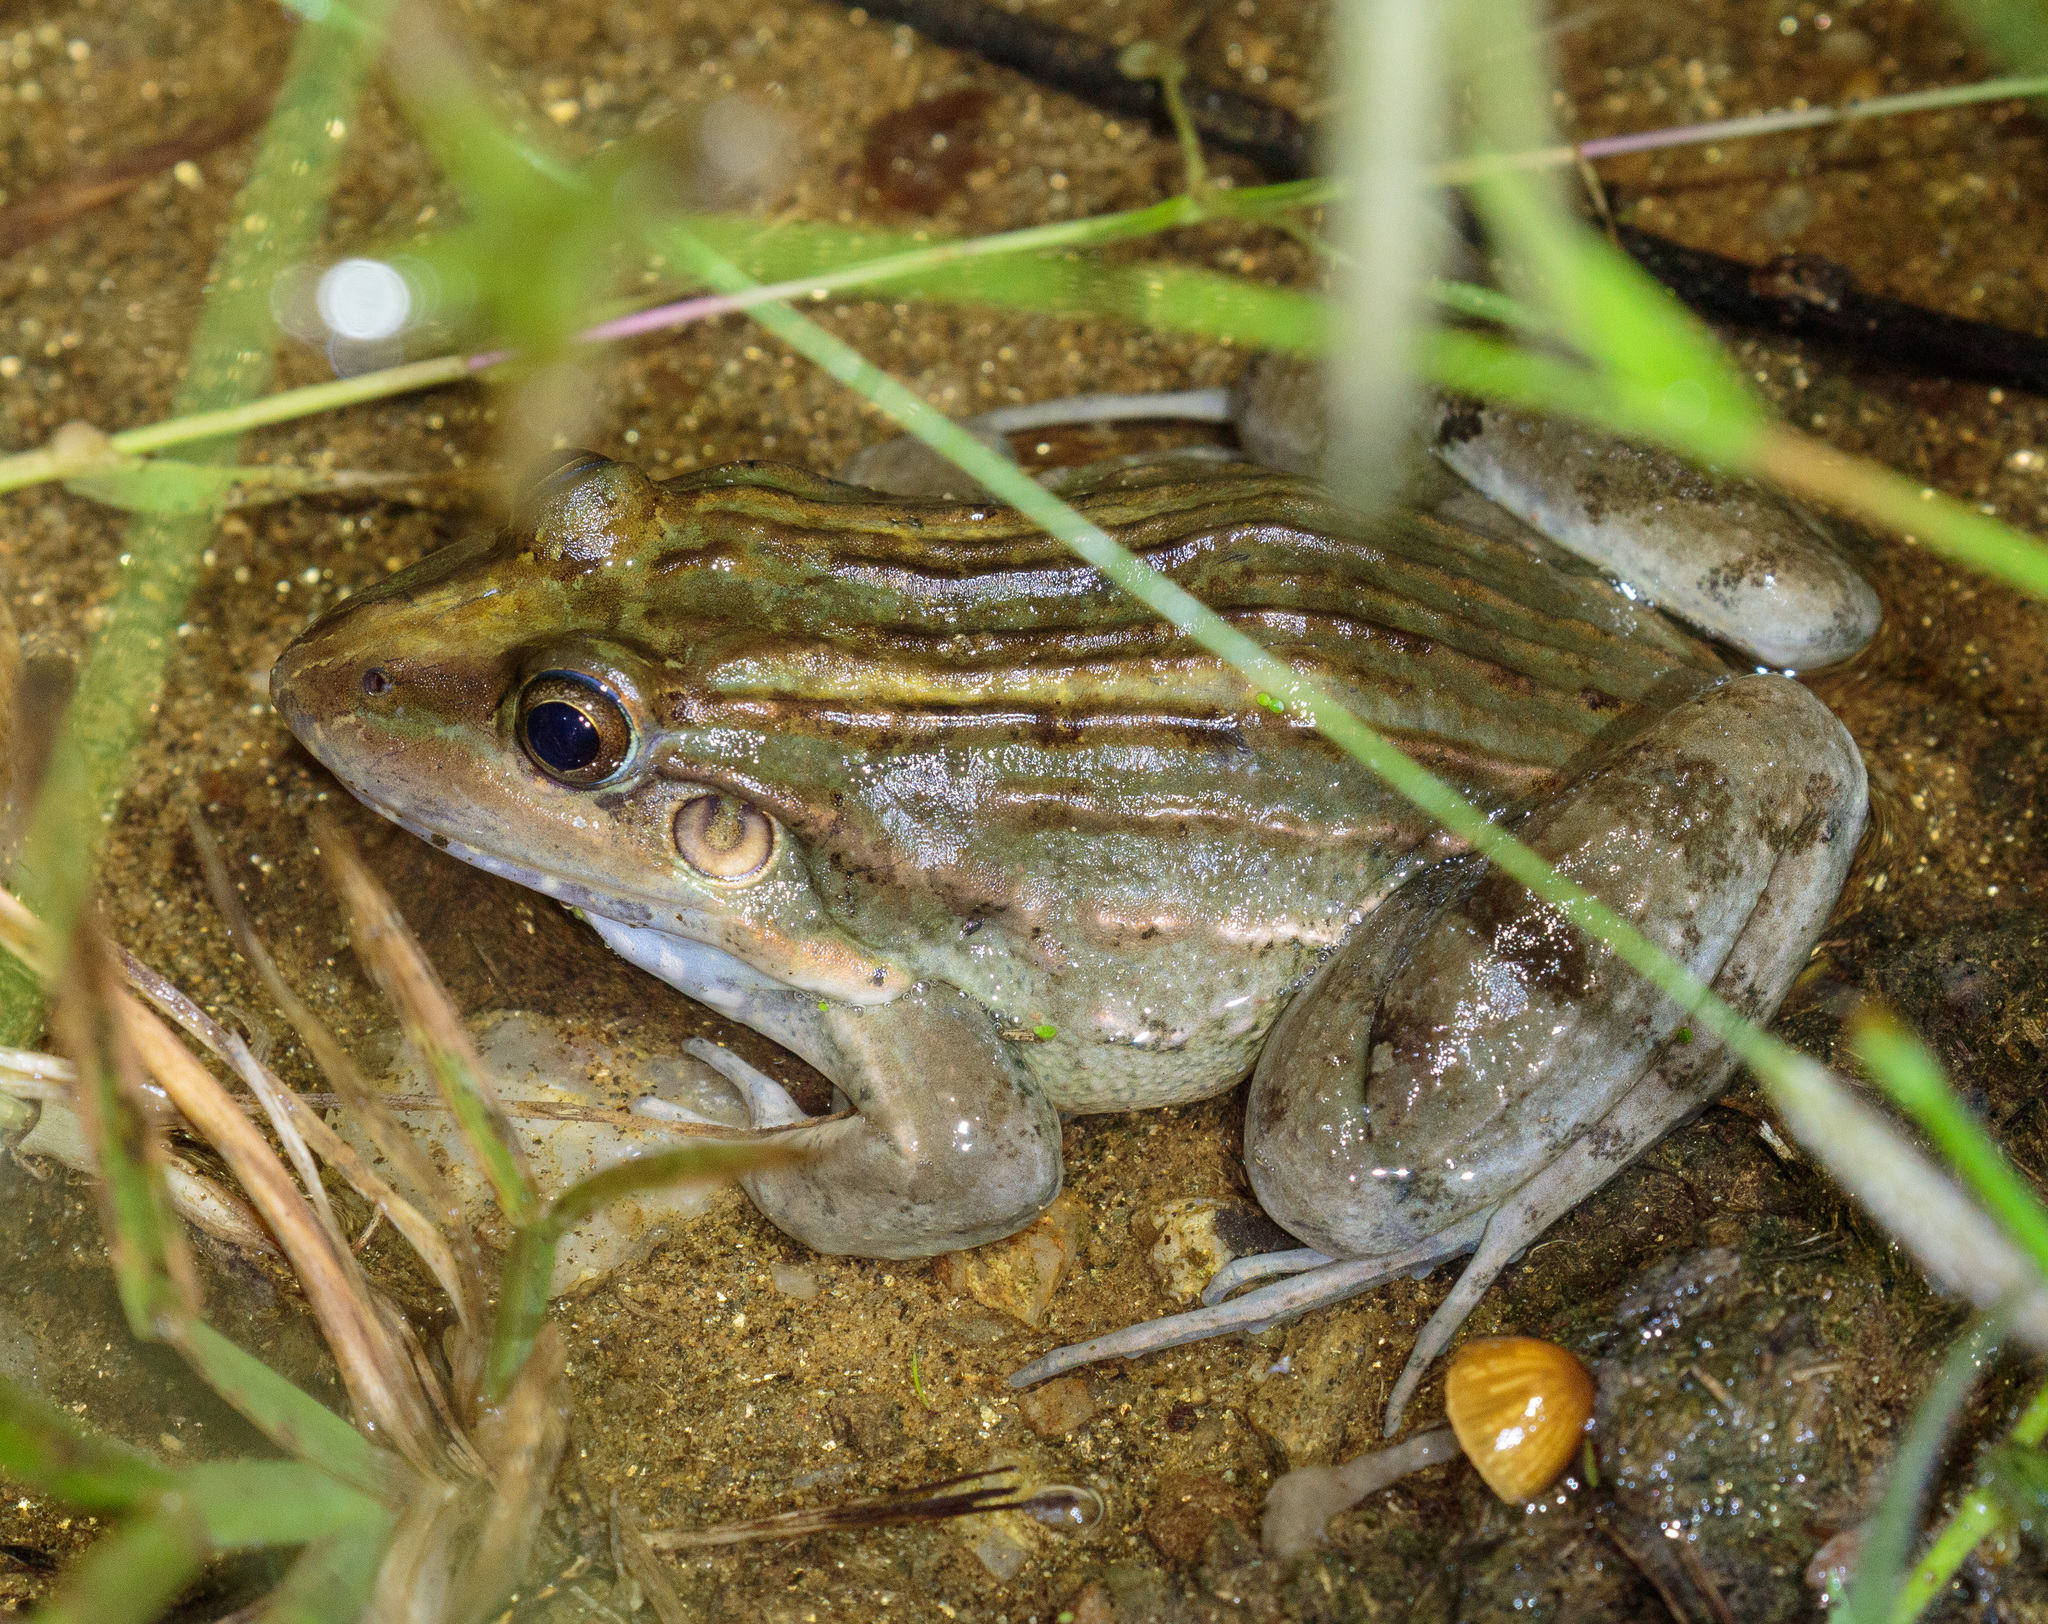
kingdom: Animalia
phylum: Chordata
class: Amphibia
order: Anura
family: Leptodactylidae
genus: Leptodactylus
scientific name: Leptodactylus fuscus
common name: Rufous frog
